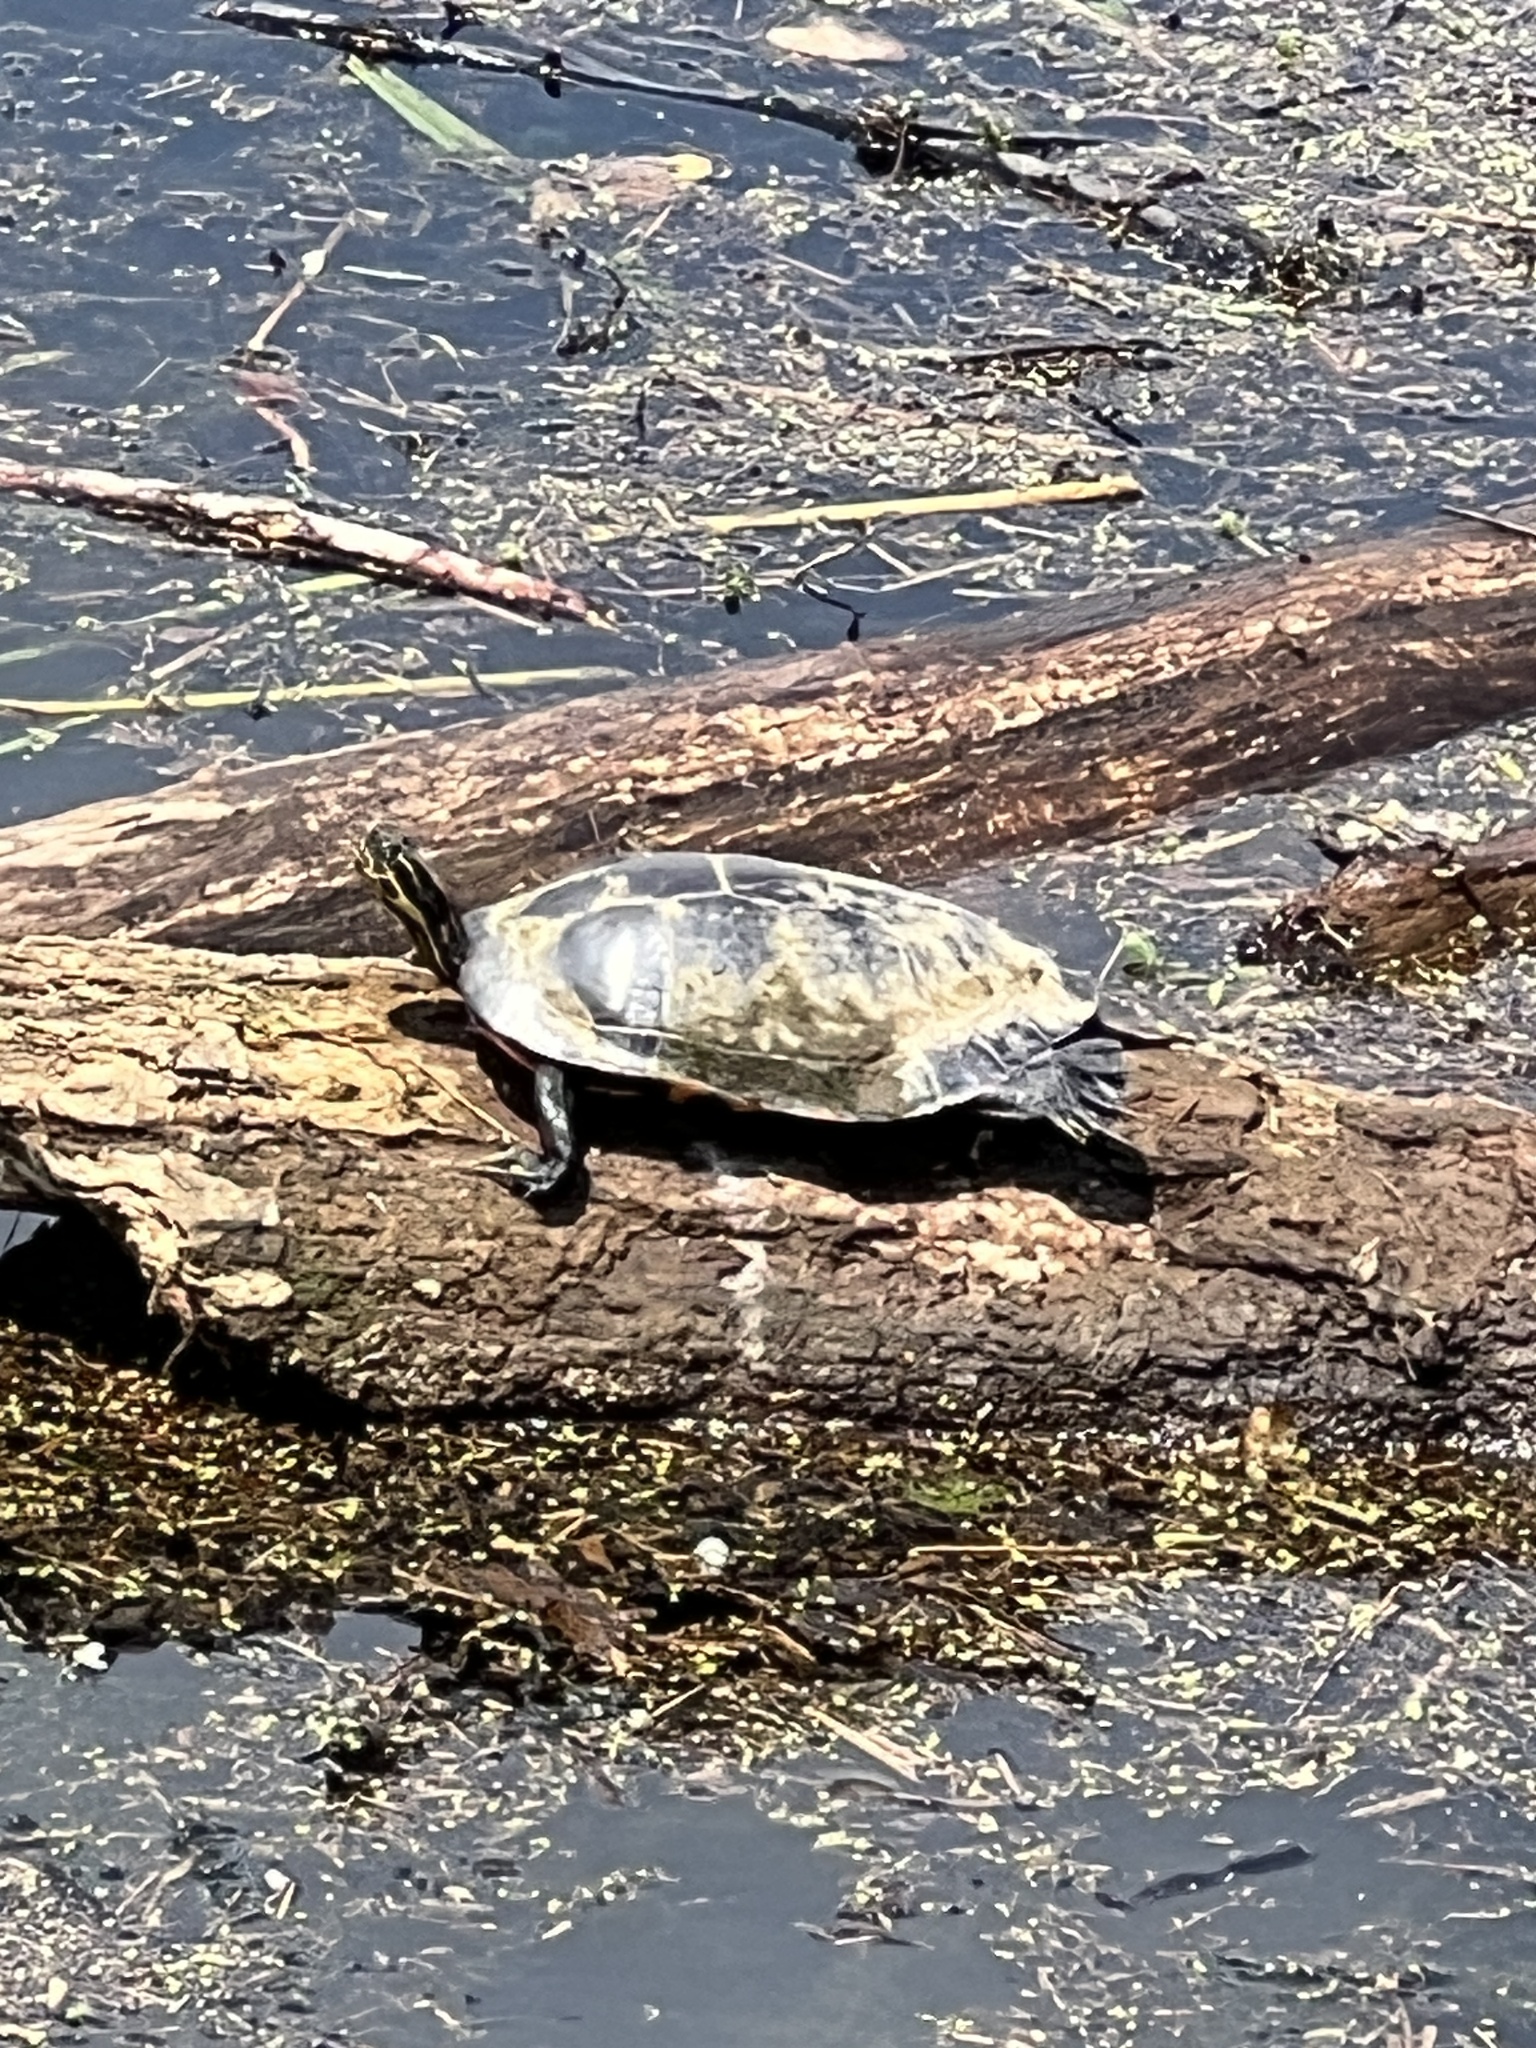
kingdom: Animalia
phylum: Chordata
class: Testudines
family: Emydidae
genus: Pseudemys
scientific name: Pseudemys concinna
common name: Eastern river cooter
